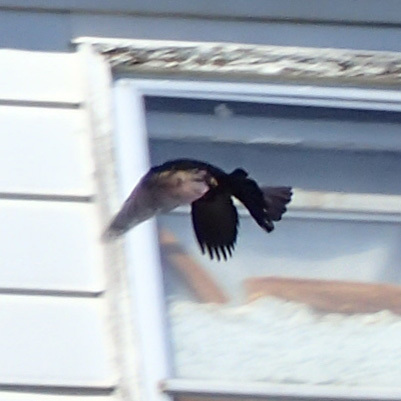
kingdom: Animalia
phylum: Chordata
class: Aves
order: Passeriformes
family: Icteridae
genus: Quiscalus
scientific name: Quiscalus quiscula
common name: Common grackle
